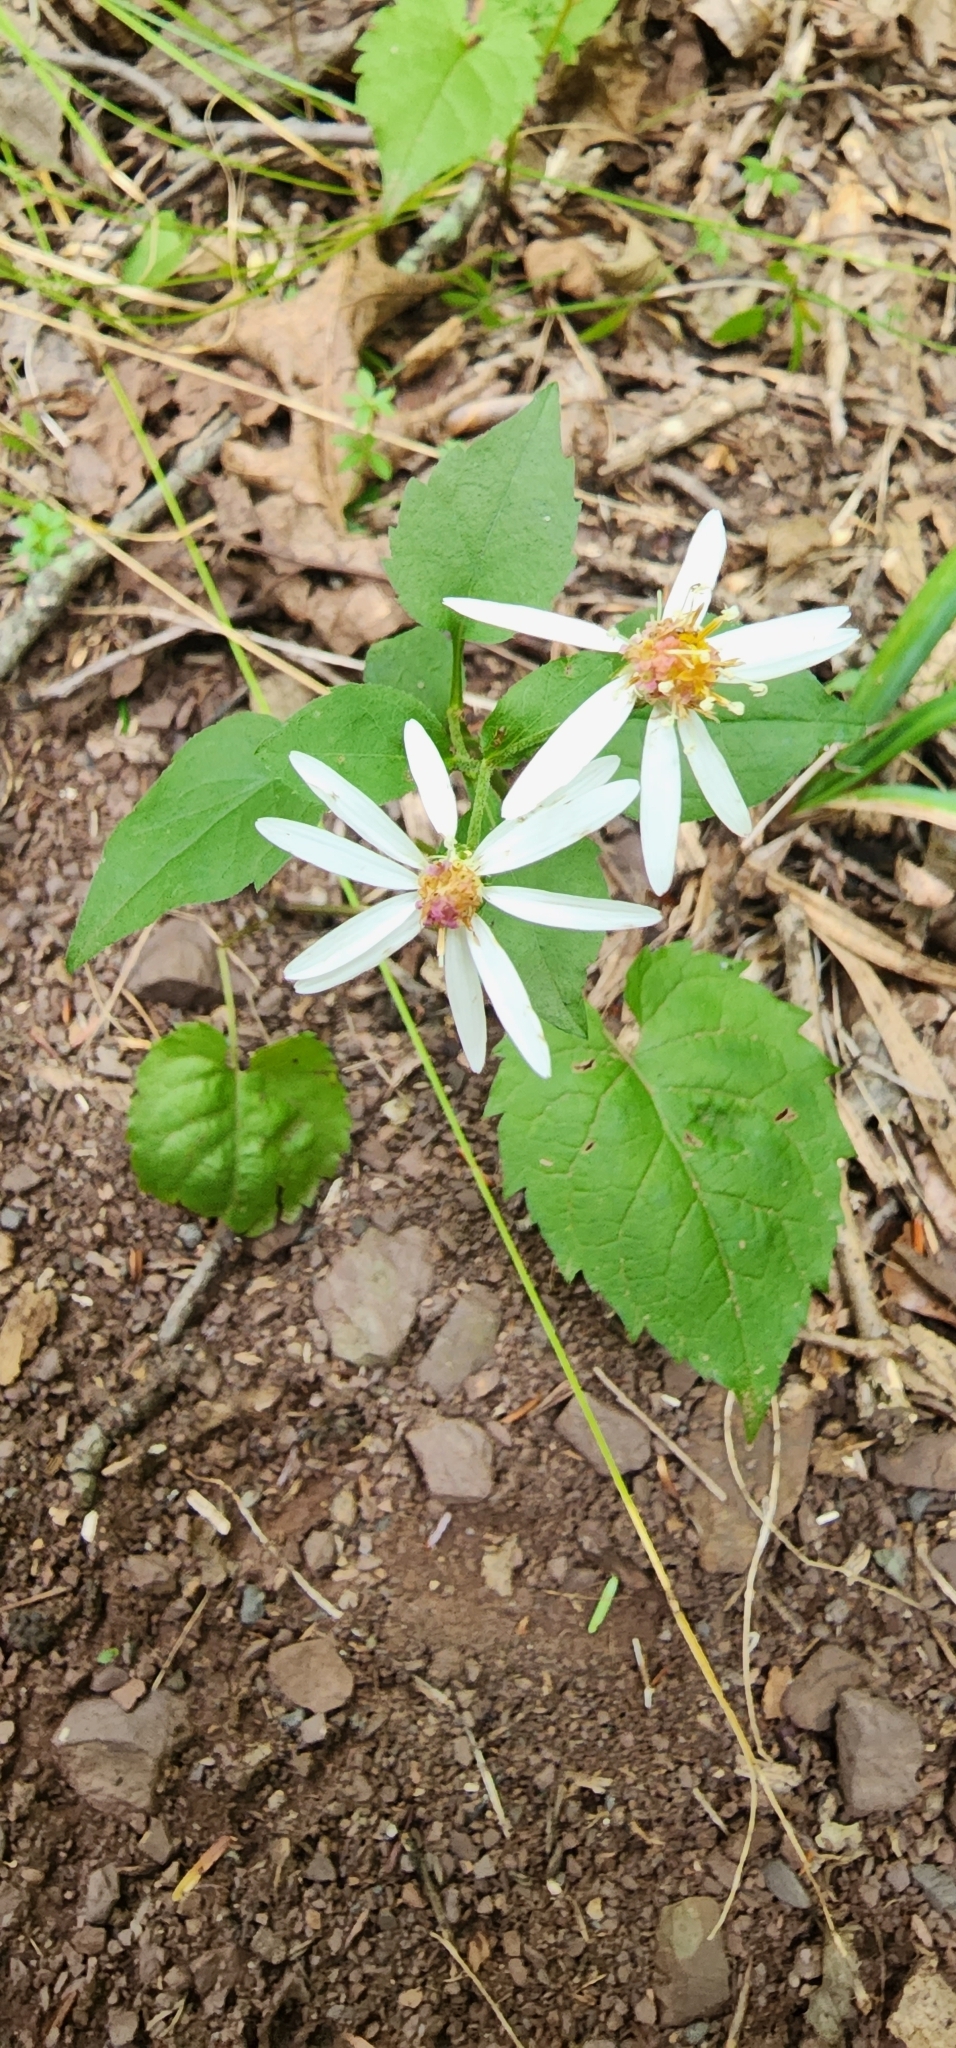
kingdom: Plantae
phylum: Tracheophyta
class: Magnoliopsida
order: Asterales
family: Asteraceae
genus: Eurybia
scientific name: Eurybia divaricata
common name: White wood aster
